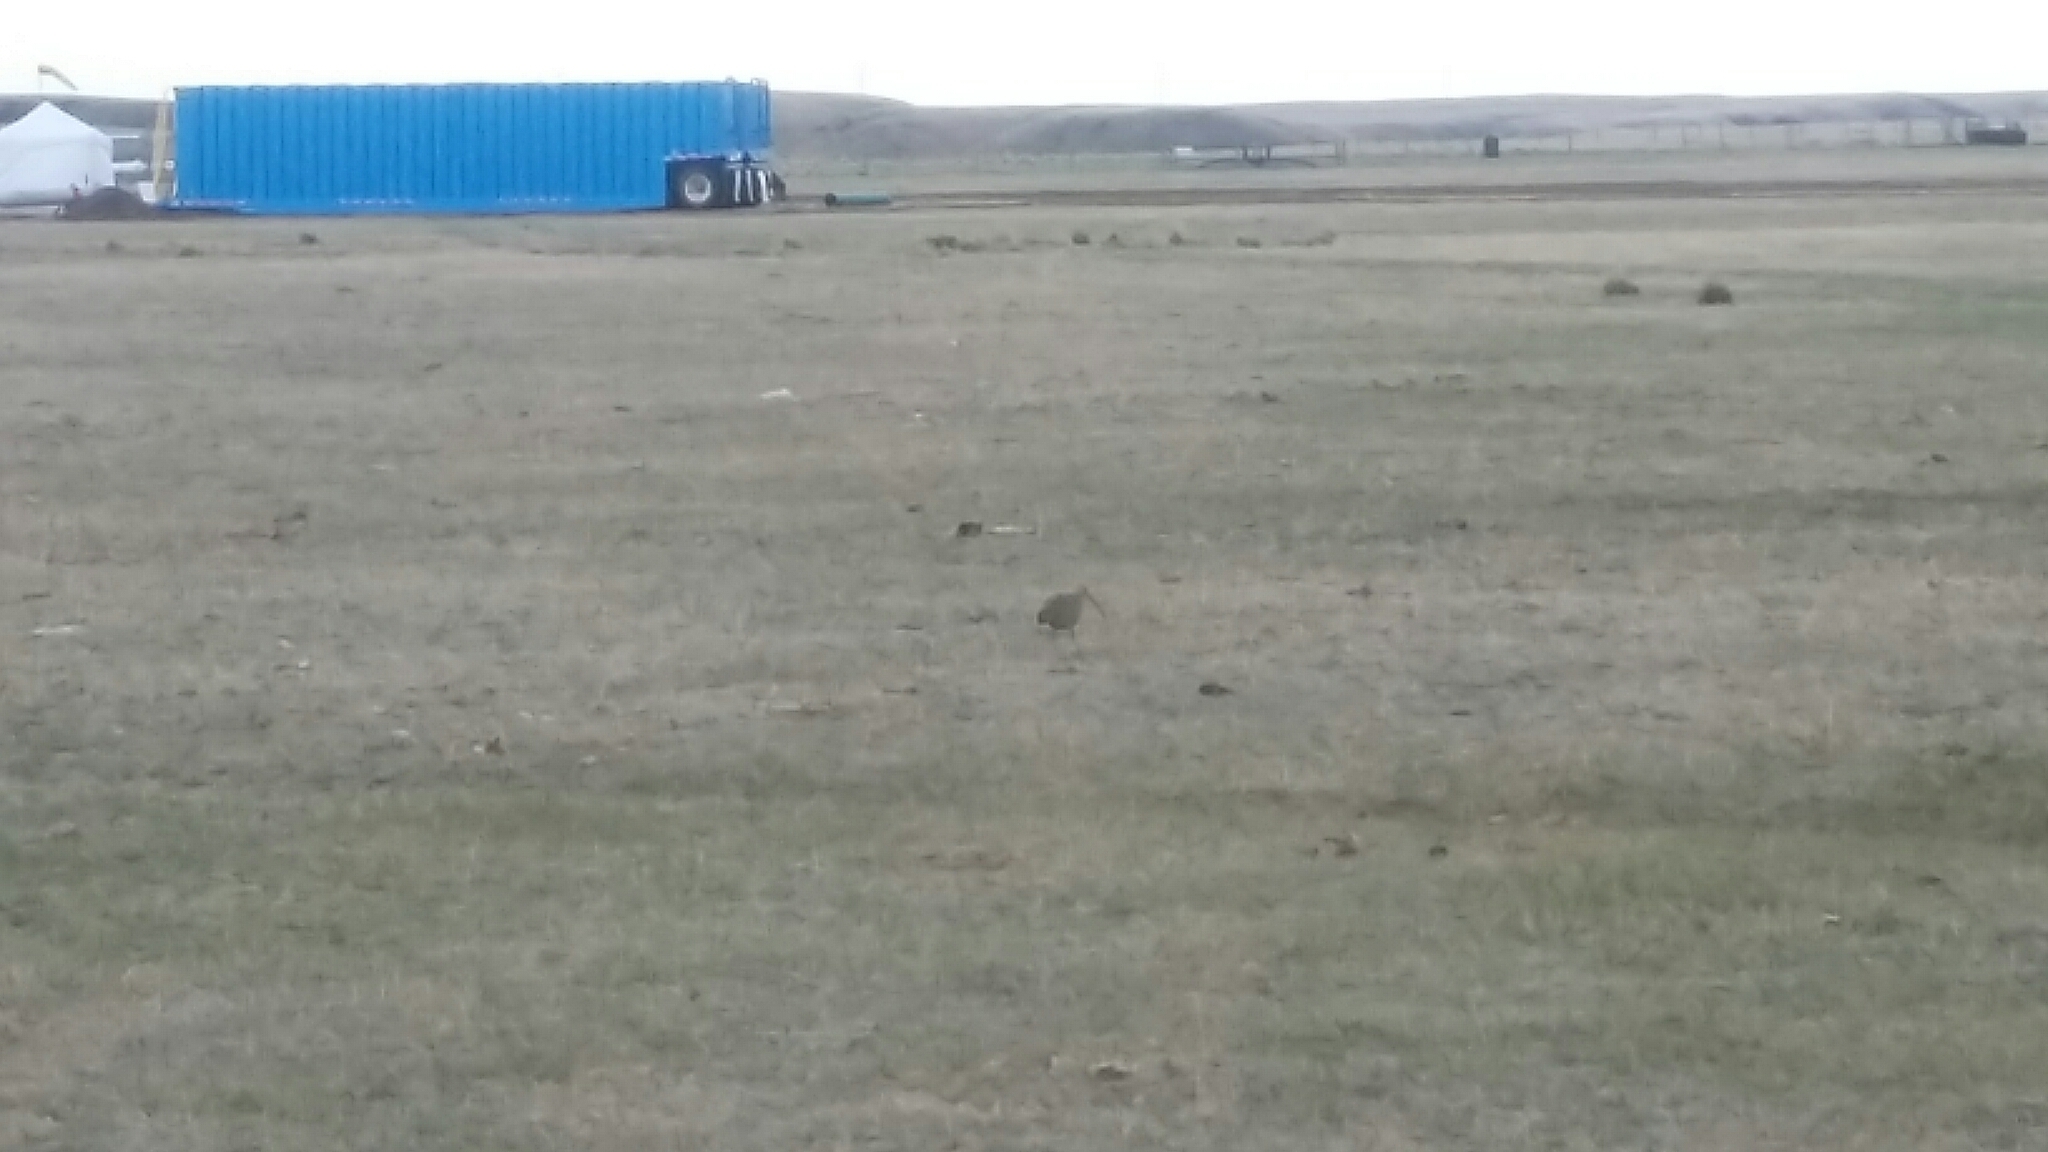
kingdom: Animalia
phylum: Chordata
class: Aves
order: Charadriiformes
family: Scolopacidae
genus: Numenius
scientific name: Numenius americanus
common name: Long-billed curlew
